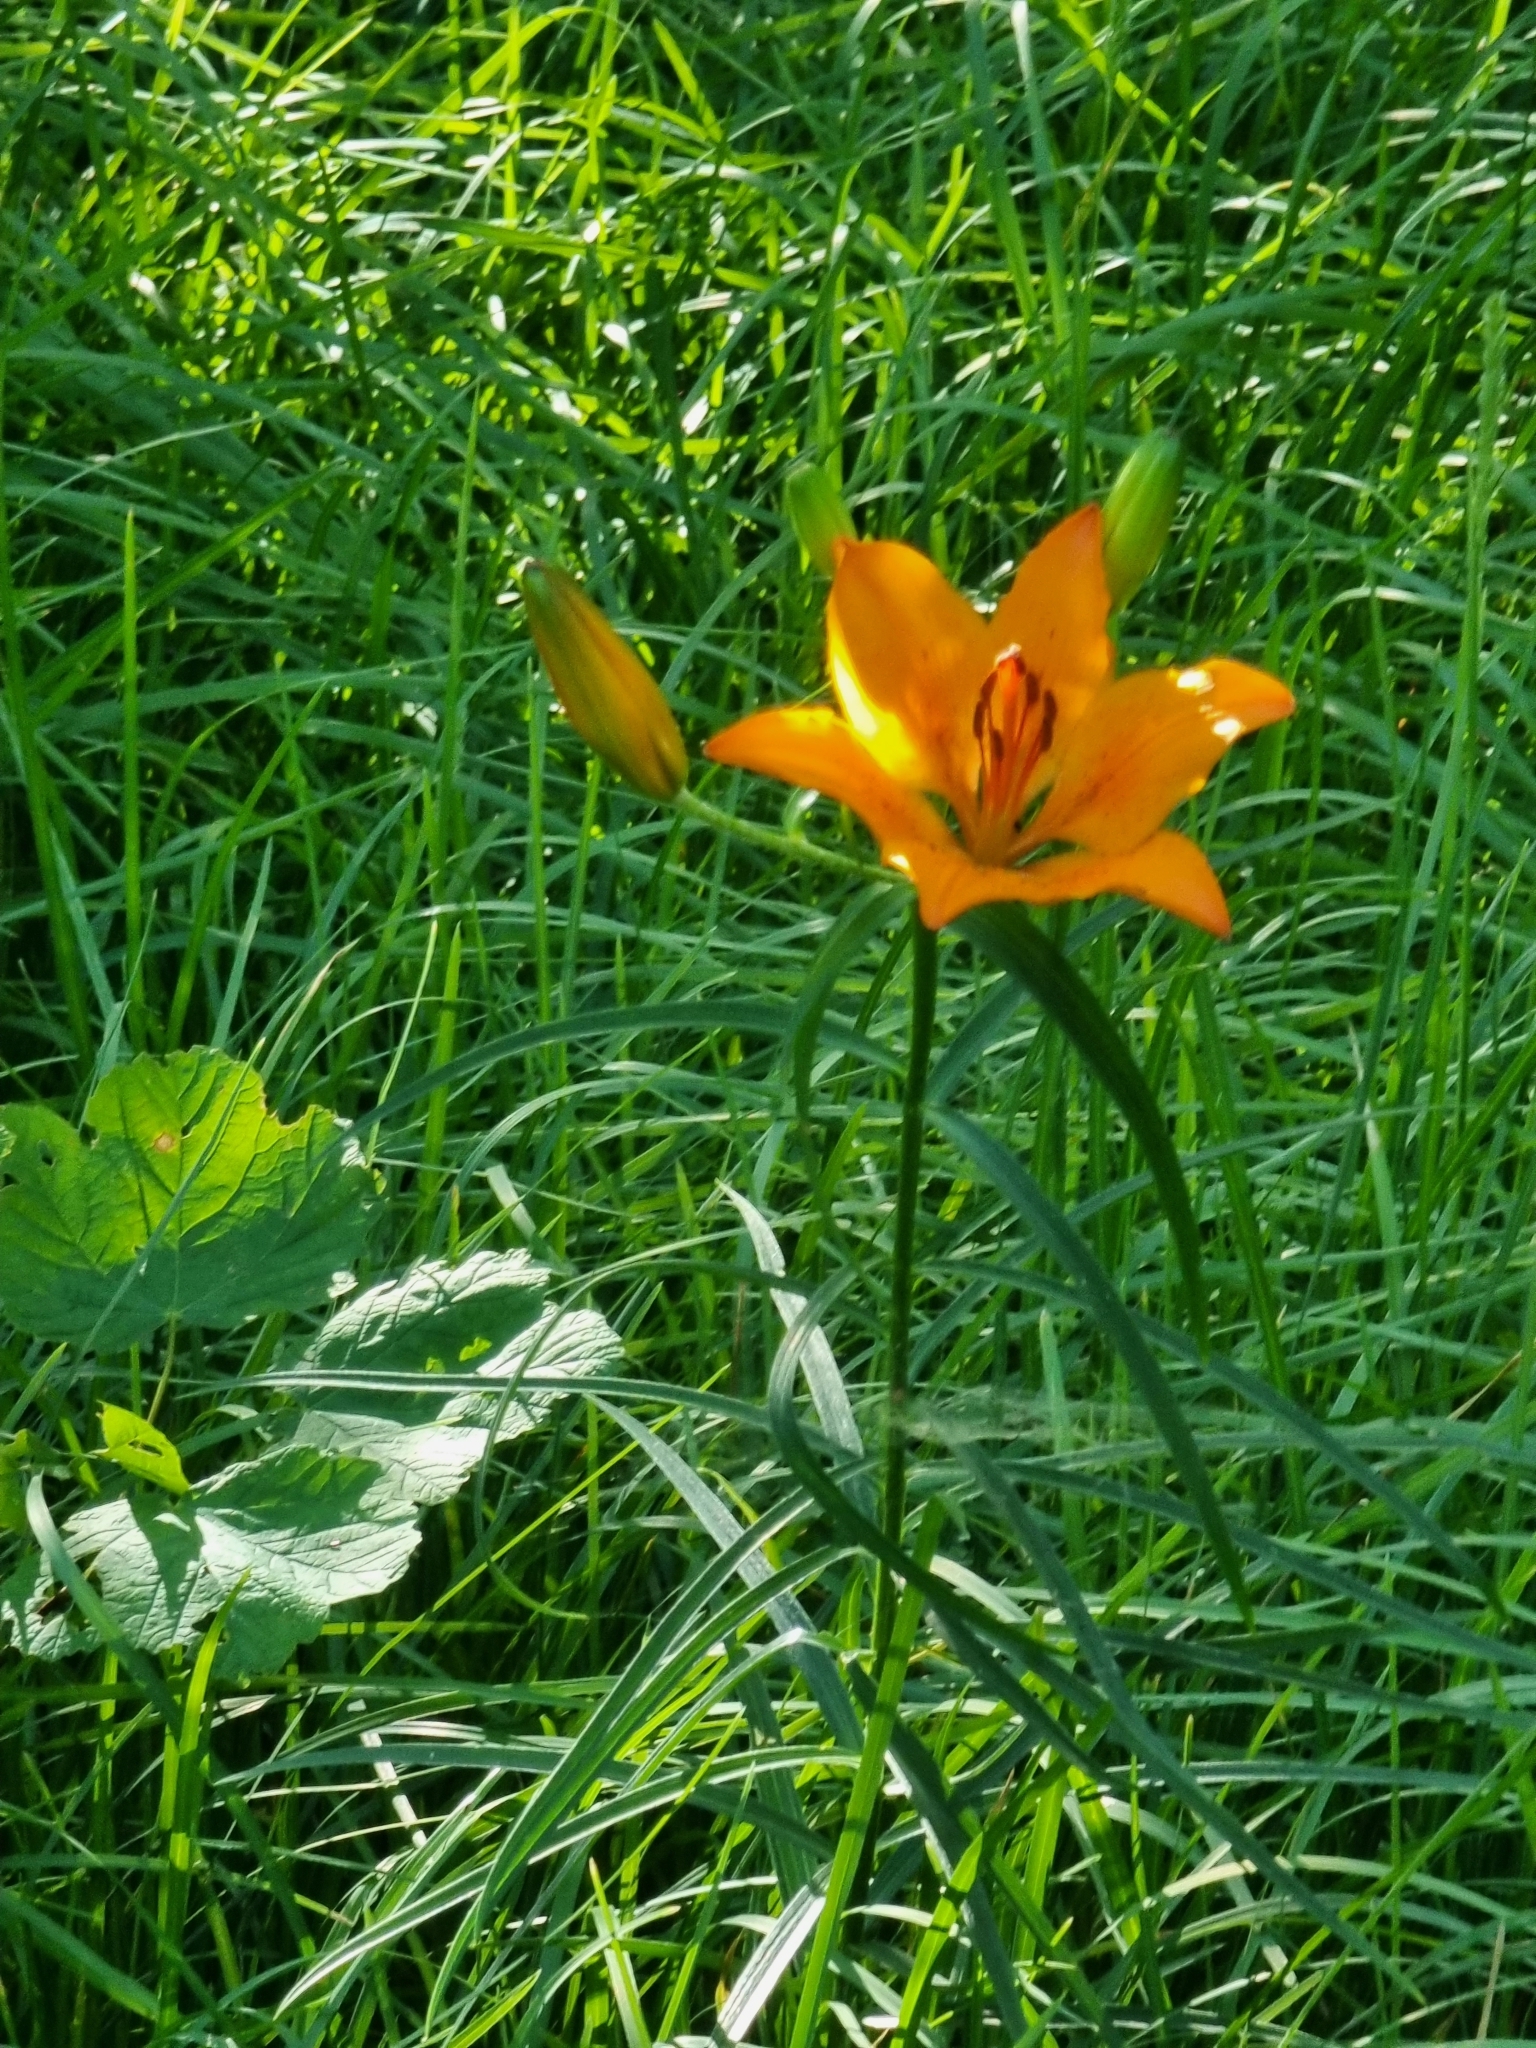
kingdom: Plantae
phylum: Tracheophyta
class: Liliopsida
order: Liliales
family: Liliaceae
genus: Lilium
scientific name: Lilium bulbiferum
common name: Orange lily
